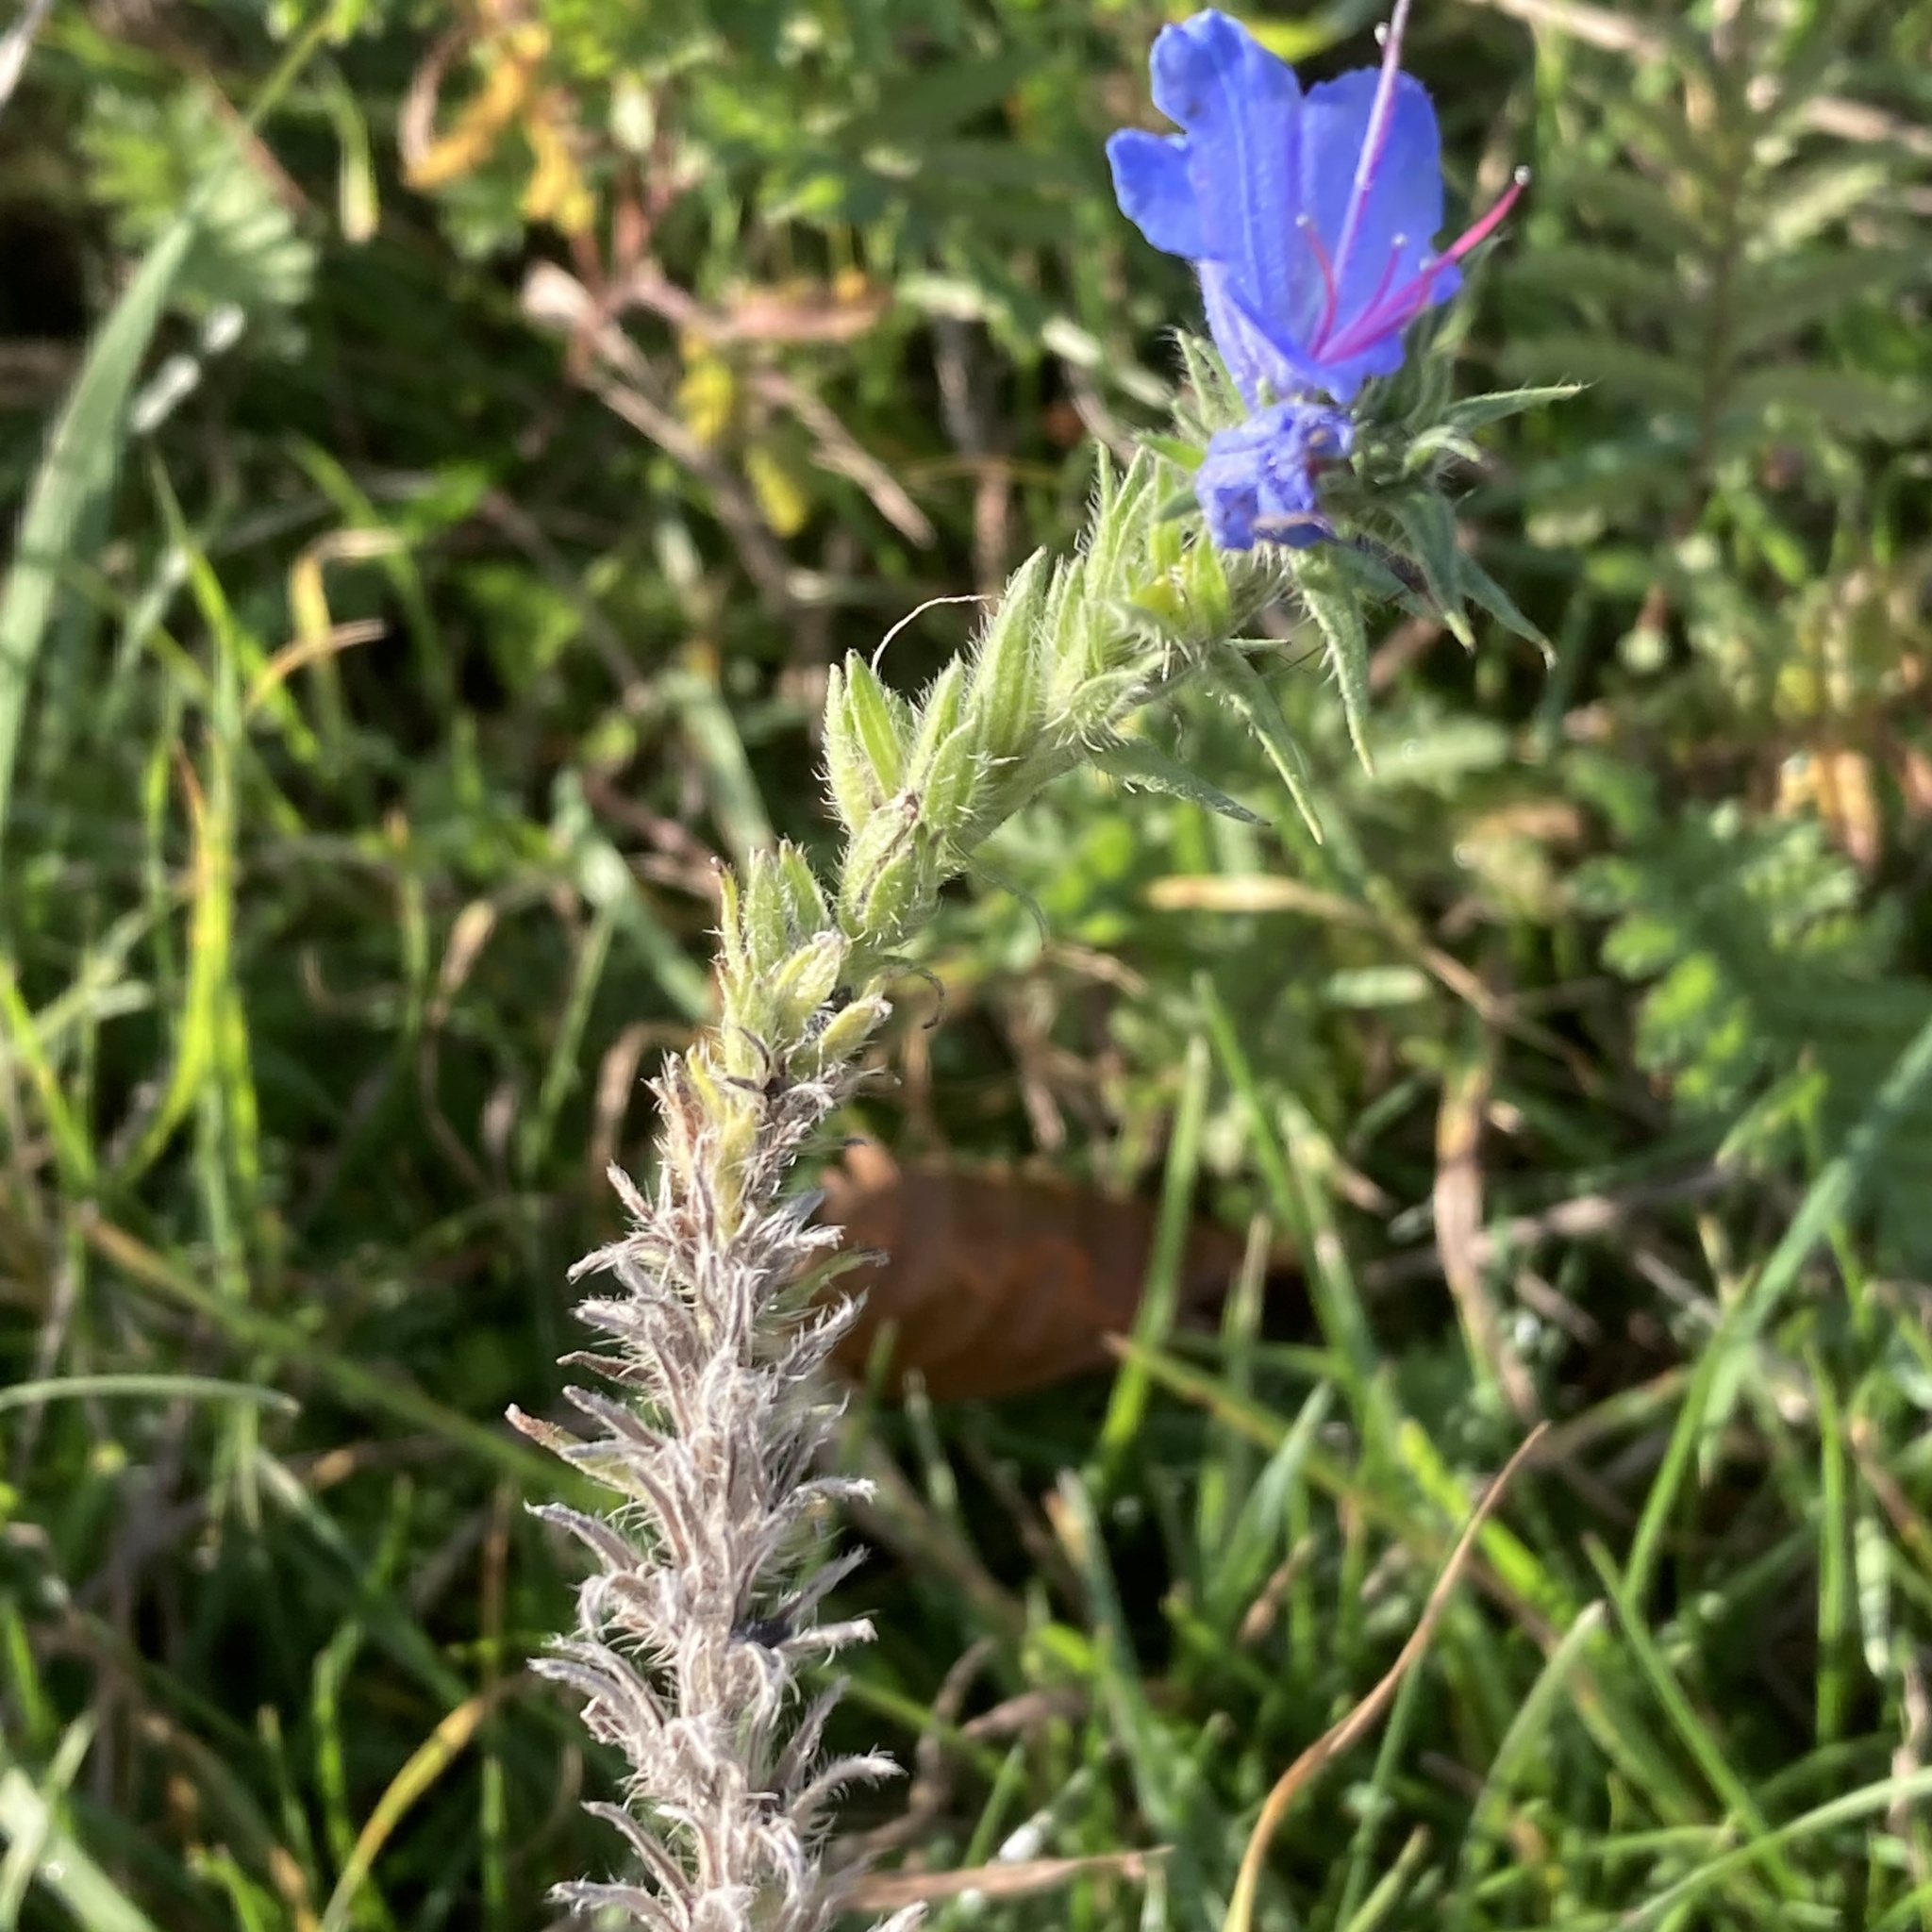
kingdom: Plantae
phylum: Tracheophyta
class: Magnoliopsida
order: Boraginales
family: Boraginaceae
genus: Echium
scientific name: Echium vulgare
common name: Common viper's bugloss
